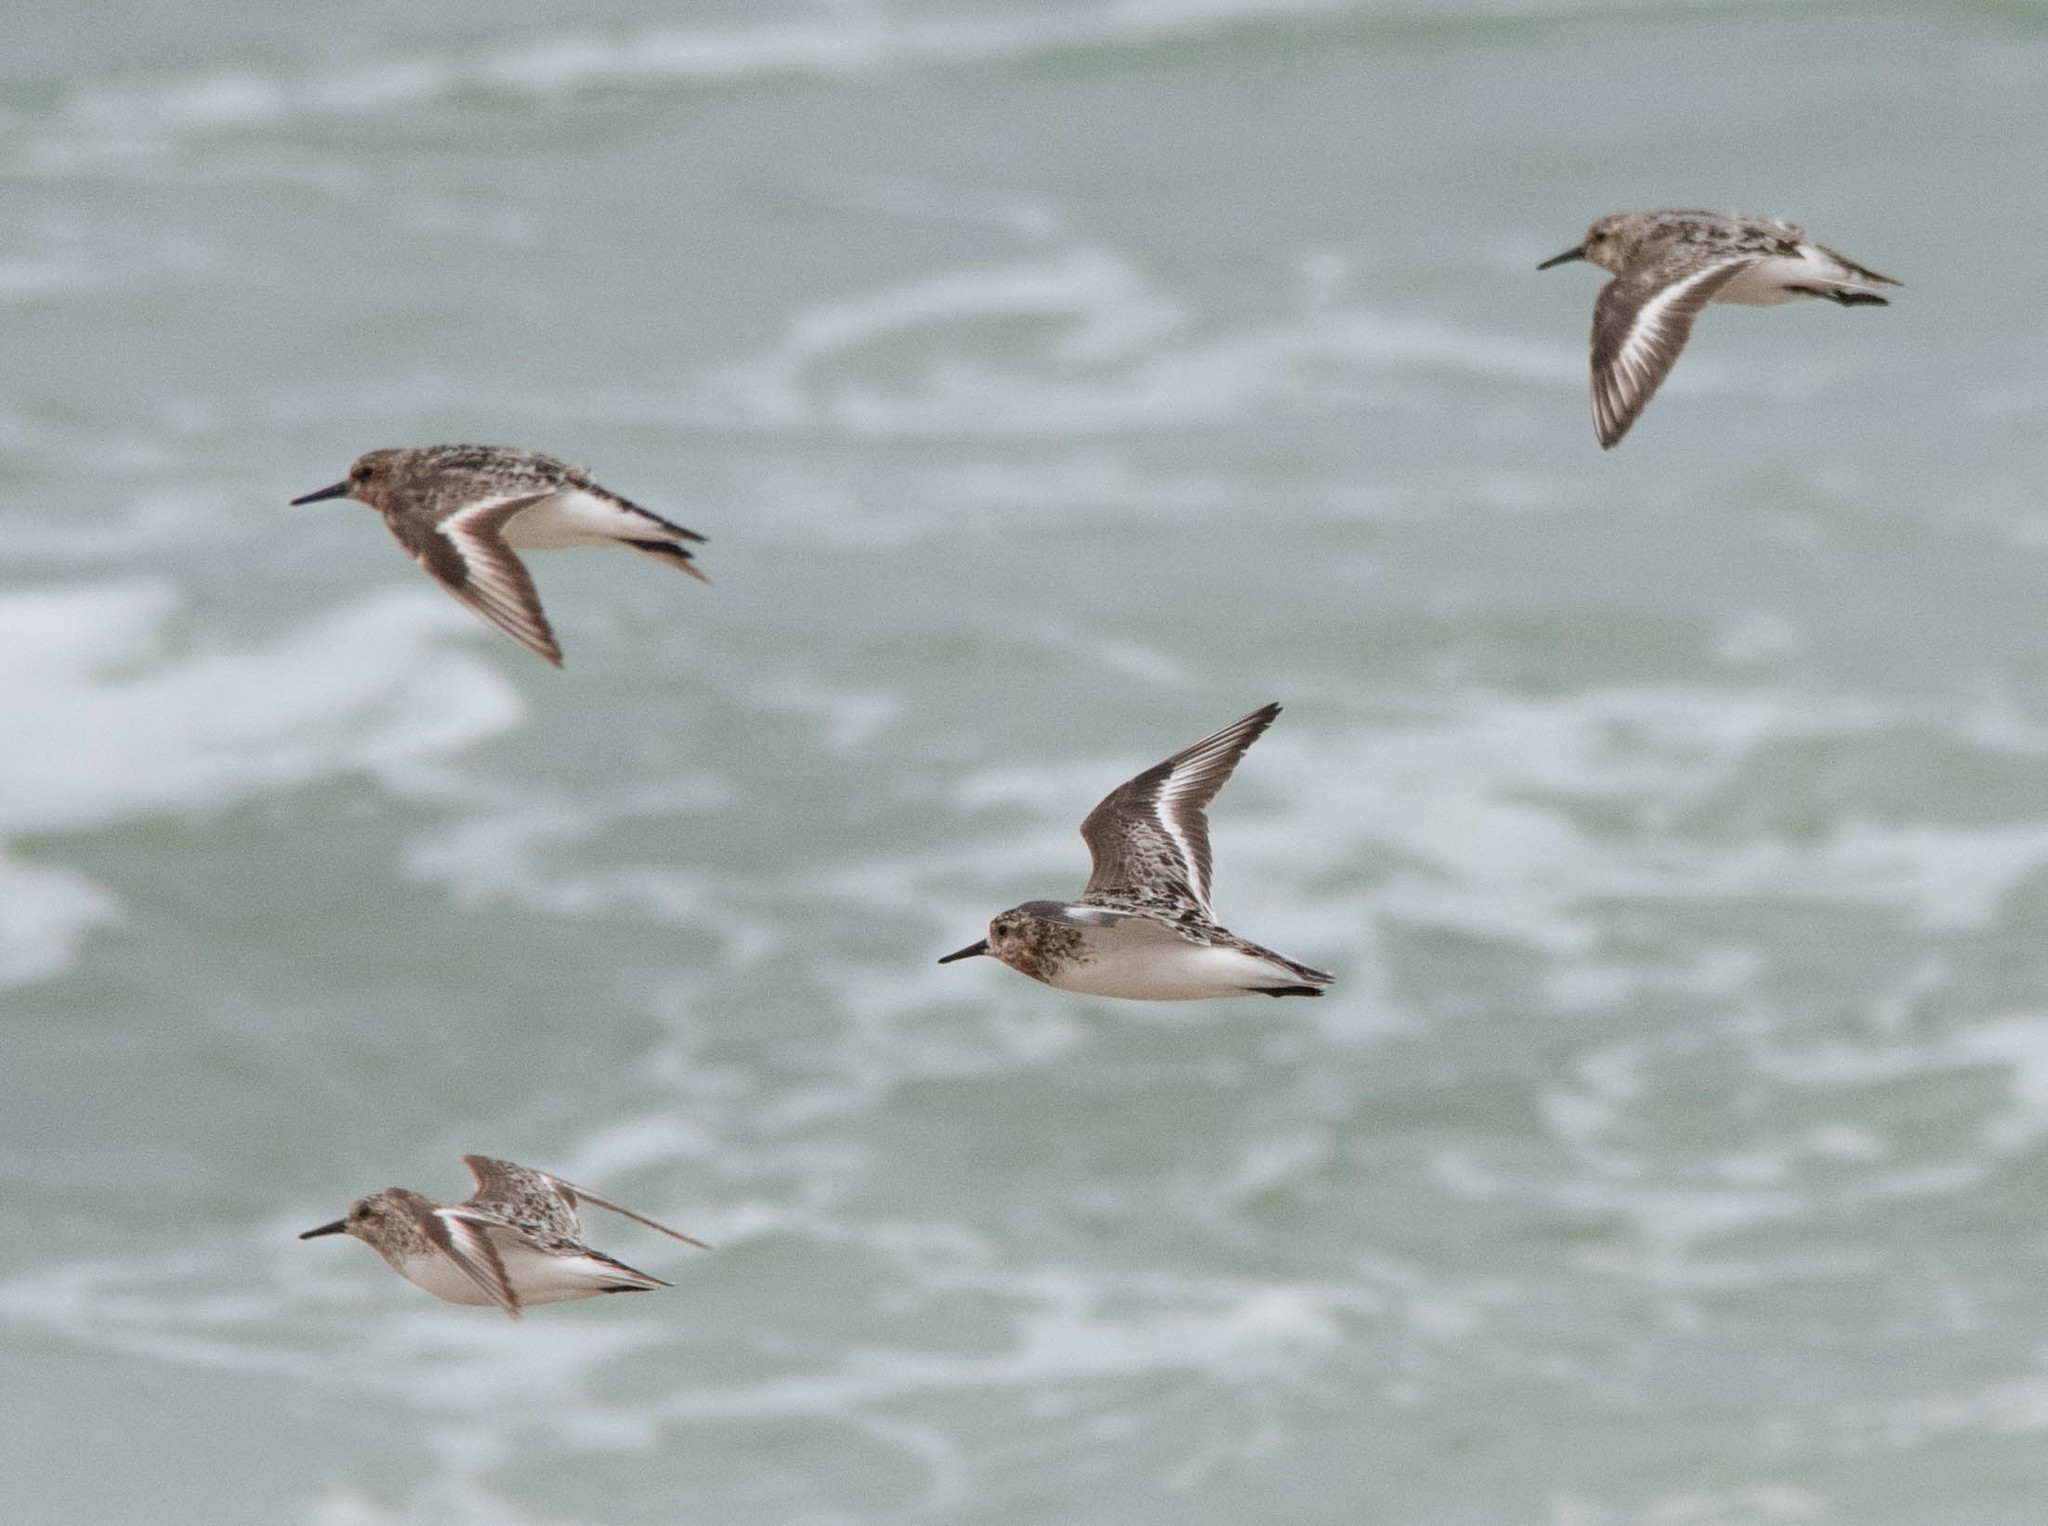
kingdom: Animalia
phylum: Chordata
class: Aves
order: Charadriiformes
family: Scolopacidae
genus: Calidris
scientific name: Calidris alba
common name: Sanderling
